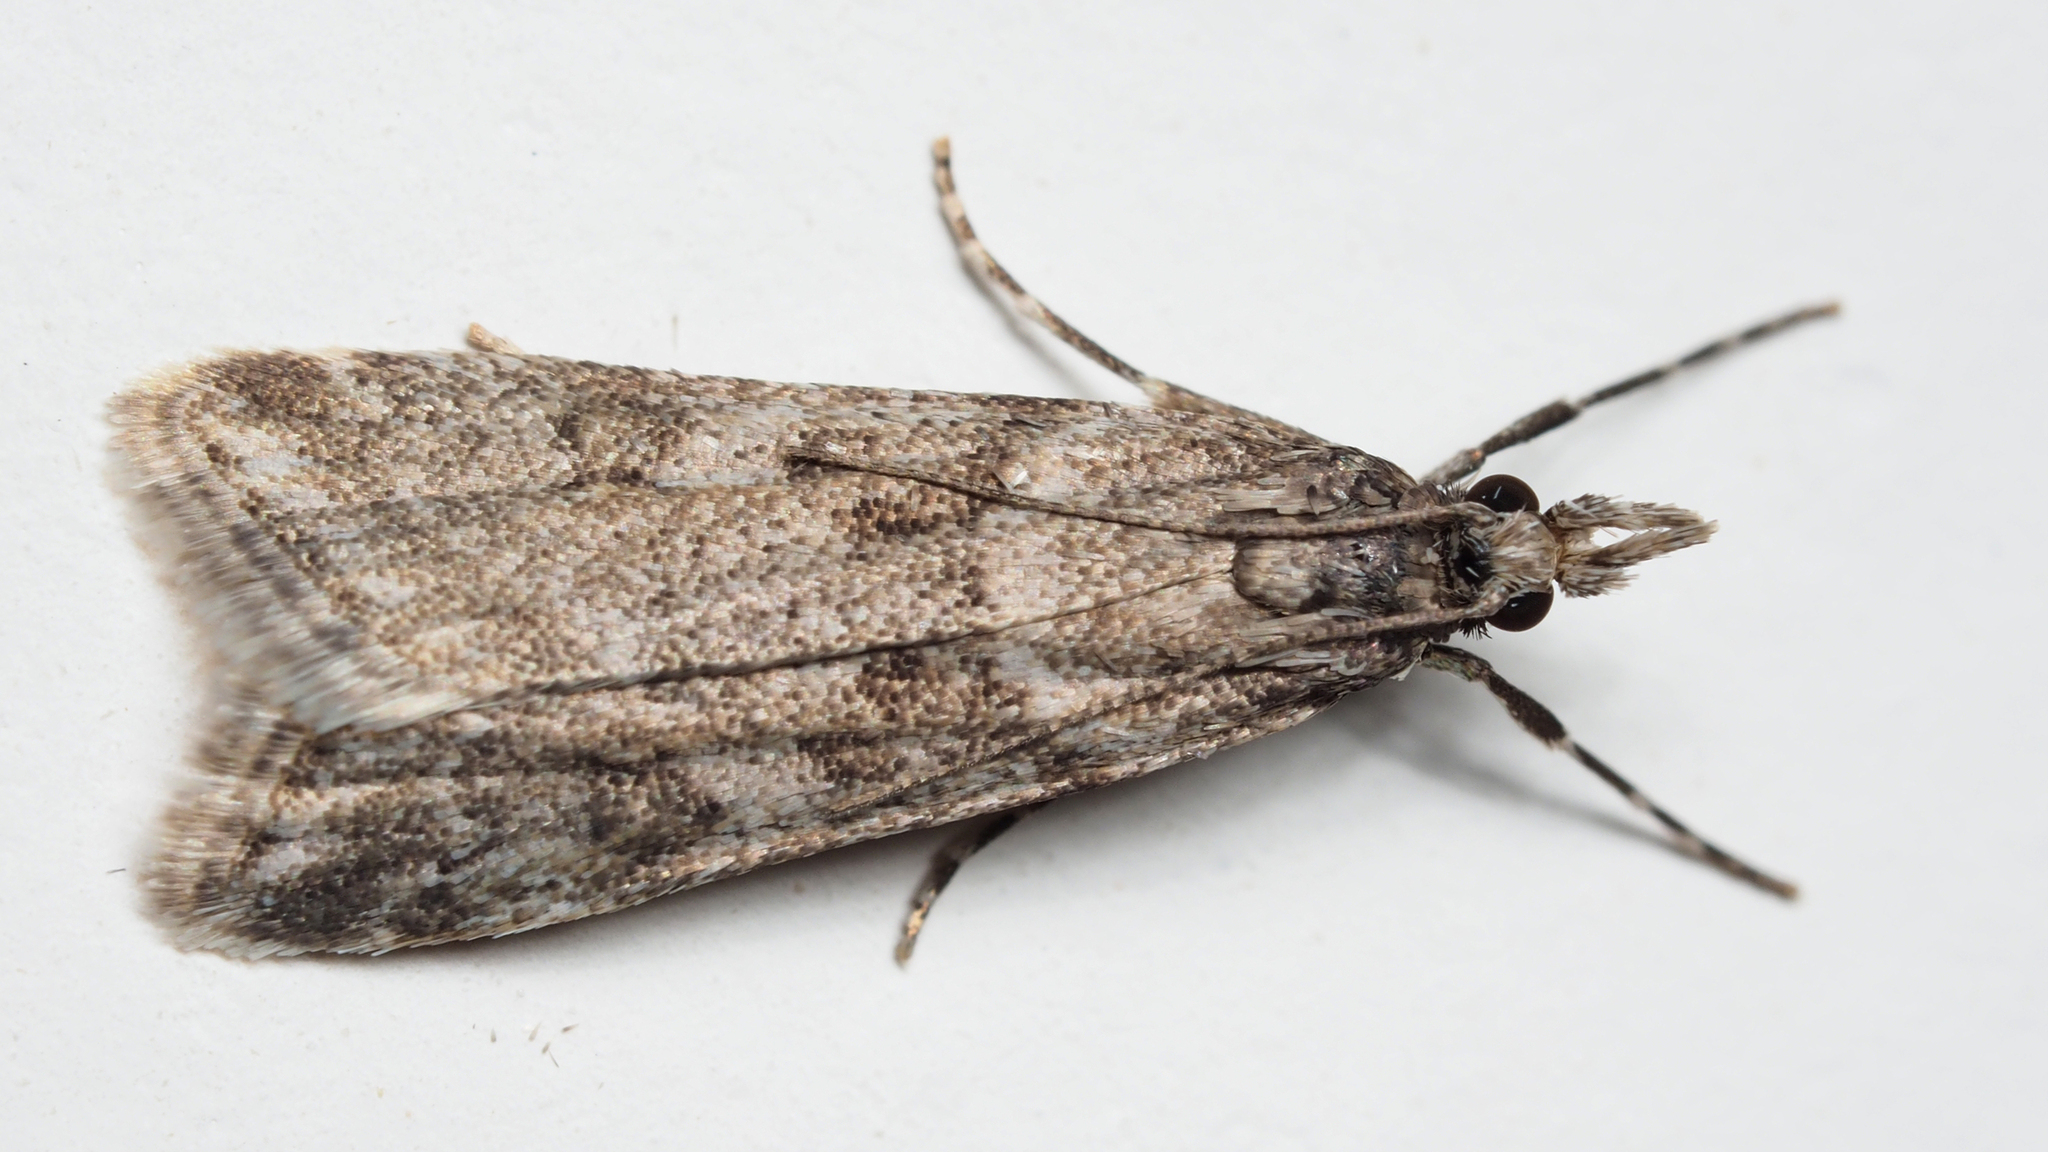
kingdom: Animalia
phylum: Arthropoda
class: Insecta
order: Lepidoptera
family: Crambidae
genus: Eudonia
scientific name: Eudonia angustea
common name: Narrow-winged grey
